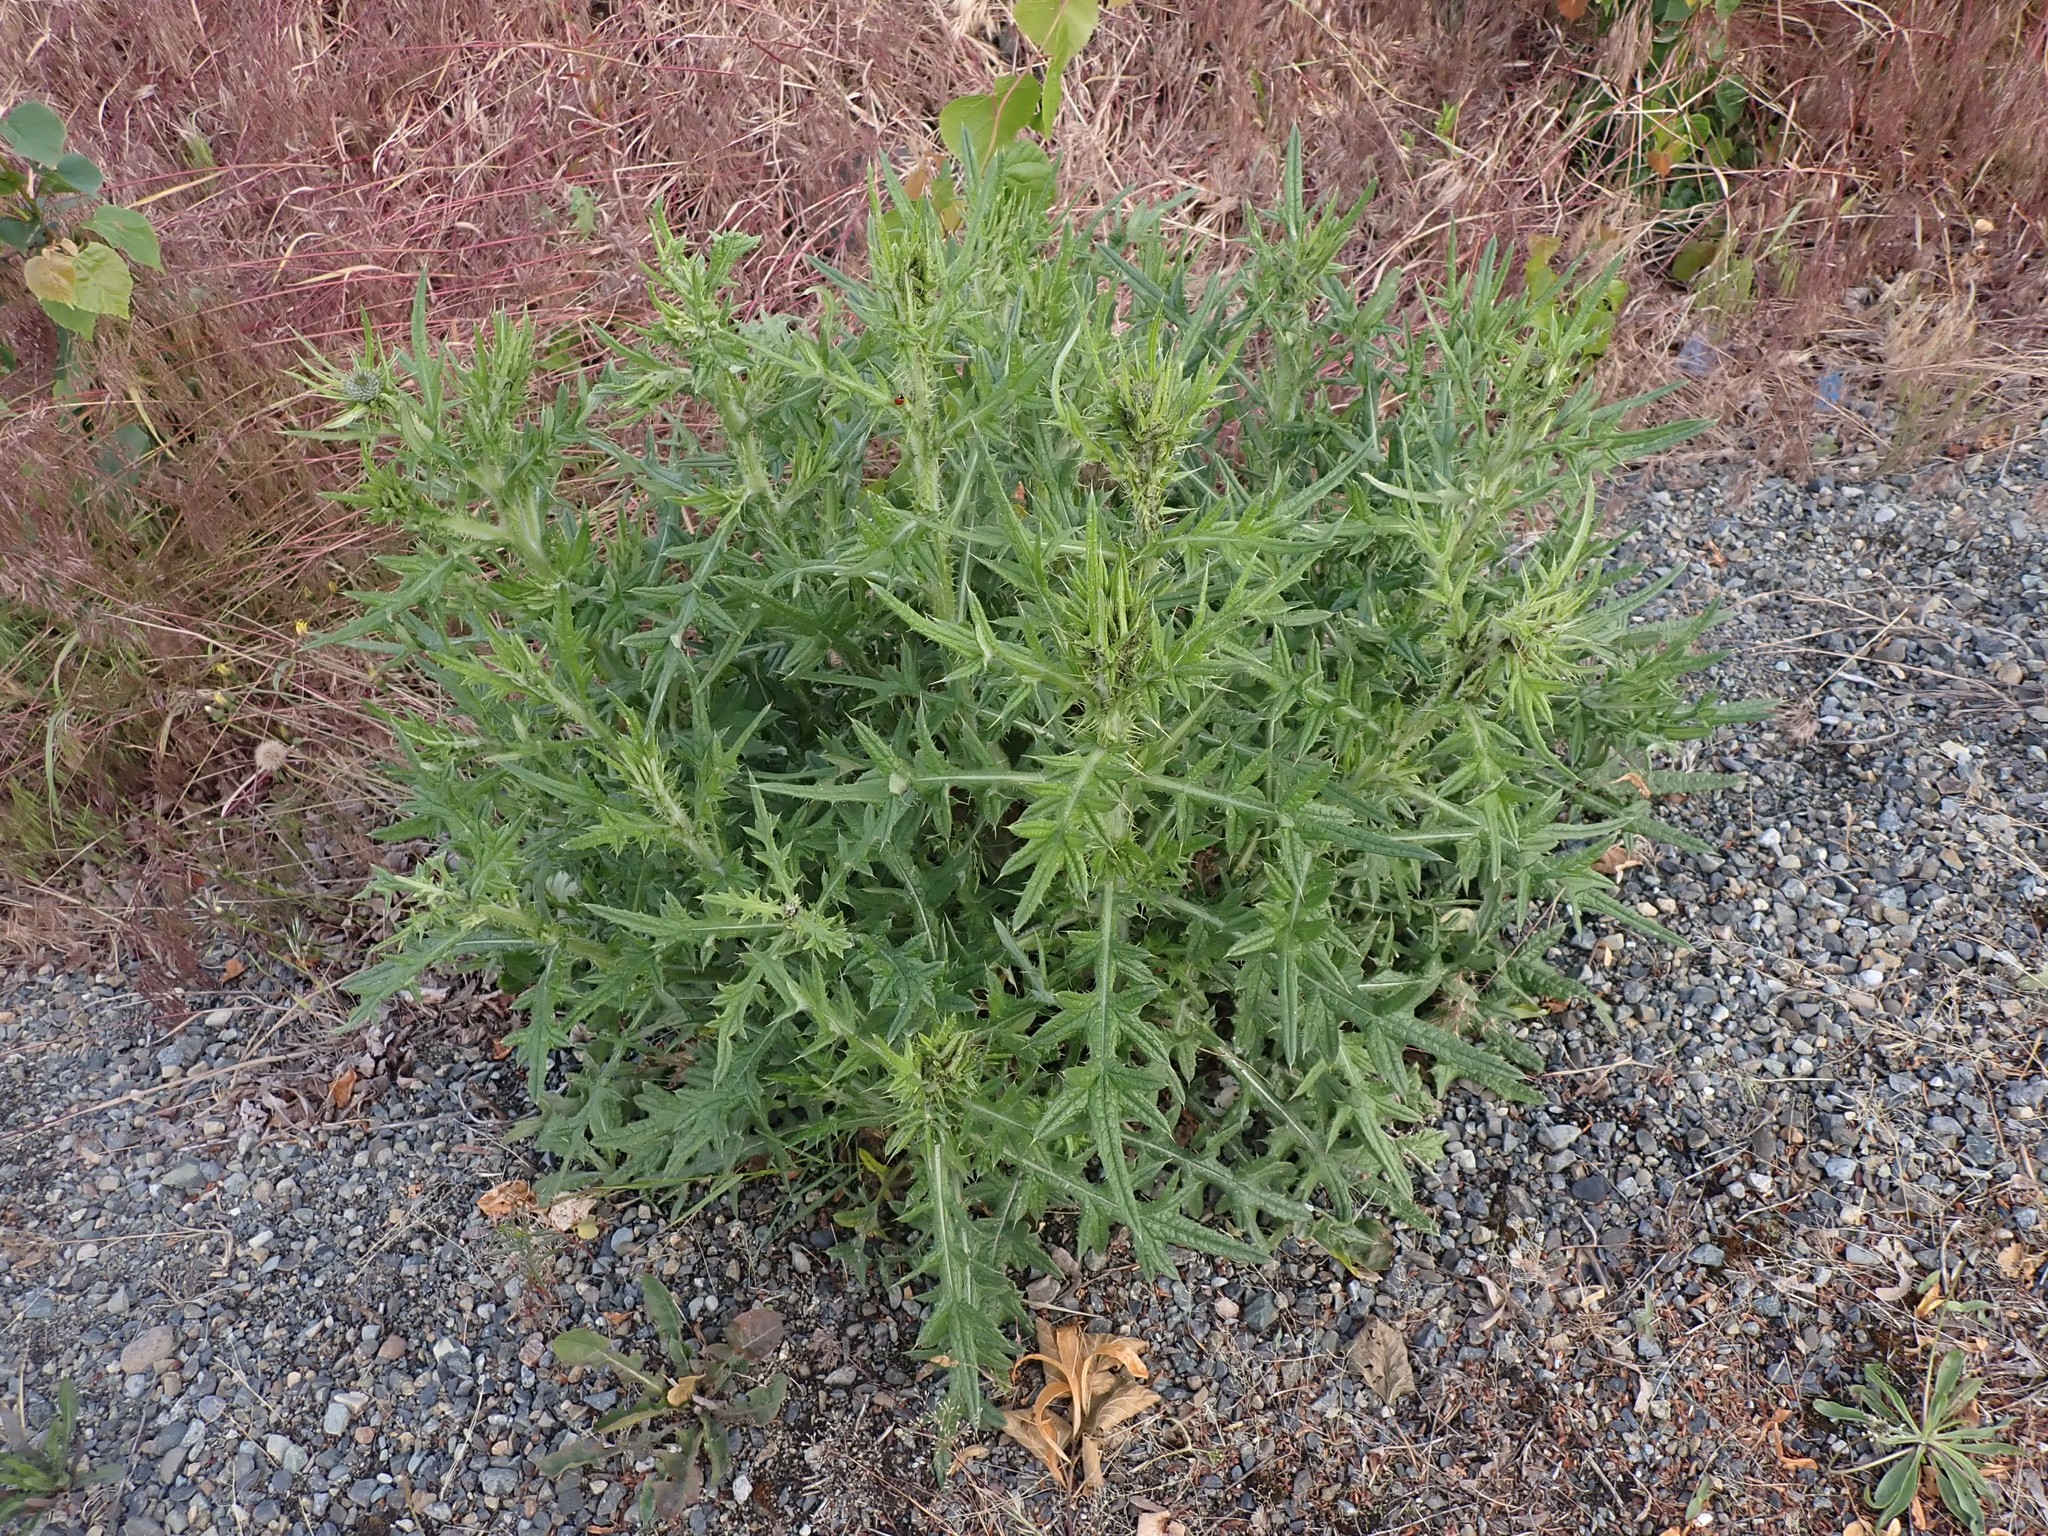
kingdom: Plantae
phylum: Tracheophyta
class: Magnoliopsida
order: Asterales
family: Asteraceae
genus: Cirsium
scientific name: Cirsium vulgare
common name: Bull thistle
